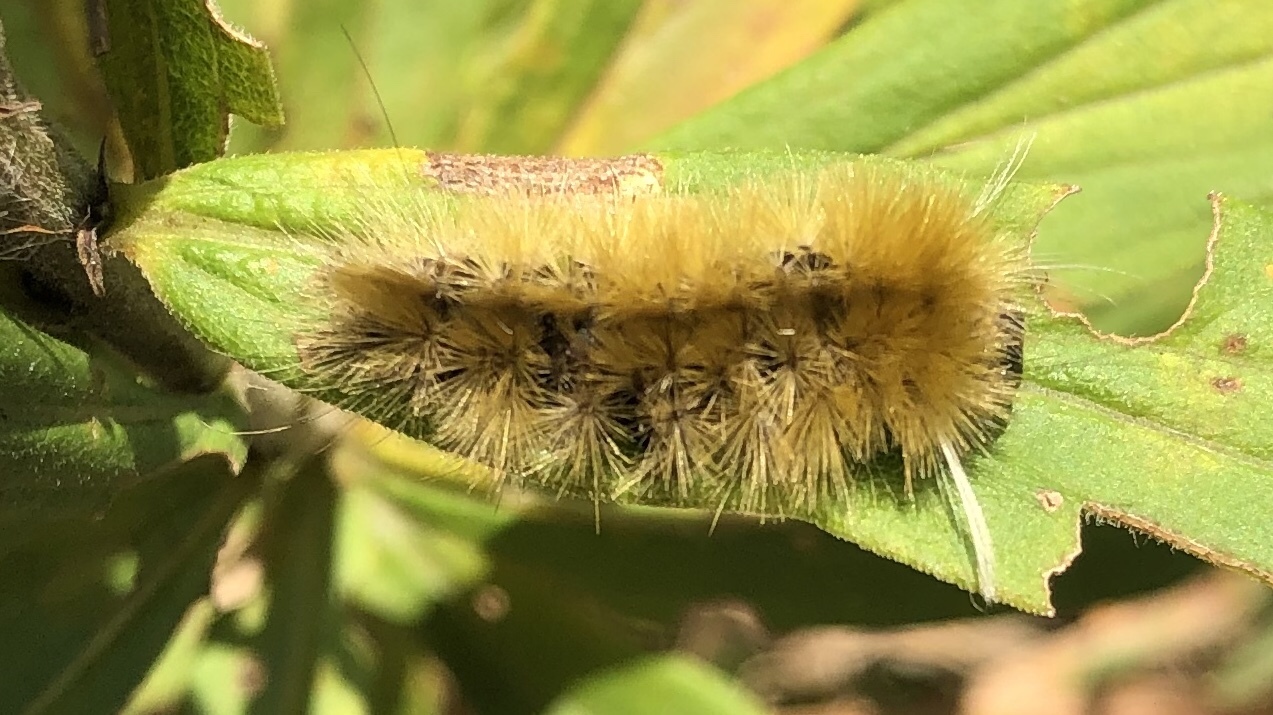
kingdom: Animalia
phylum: Arthropoda
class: Insecta
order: Lepidoptera
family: Erebidae
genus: Halysidota
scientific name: Halysidota tessellaris
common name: Banded tussock moth
